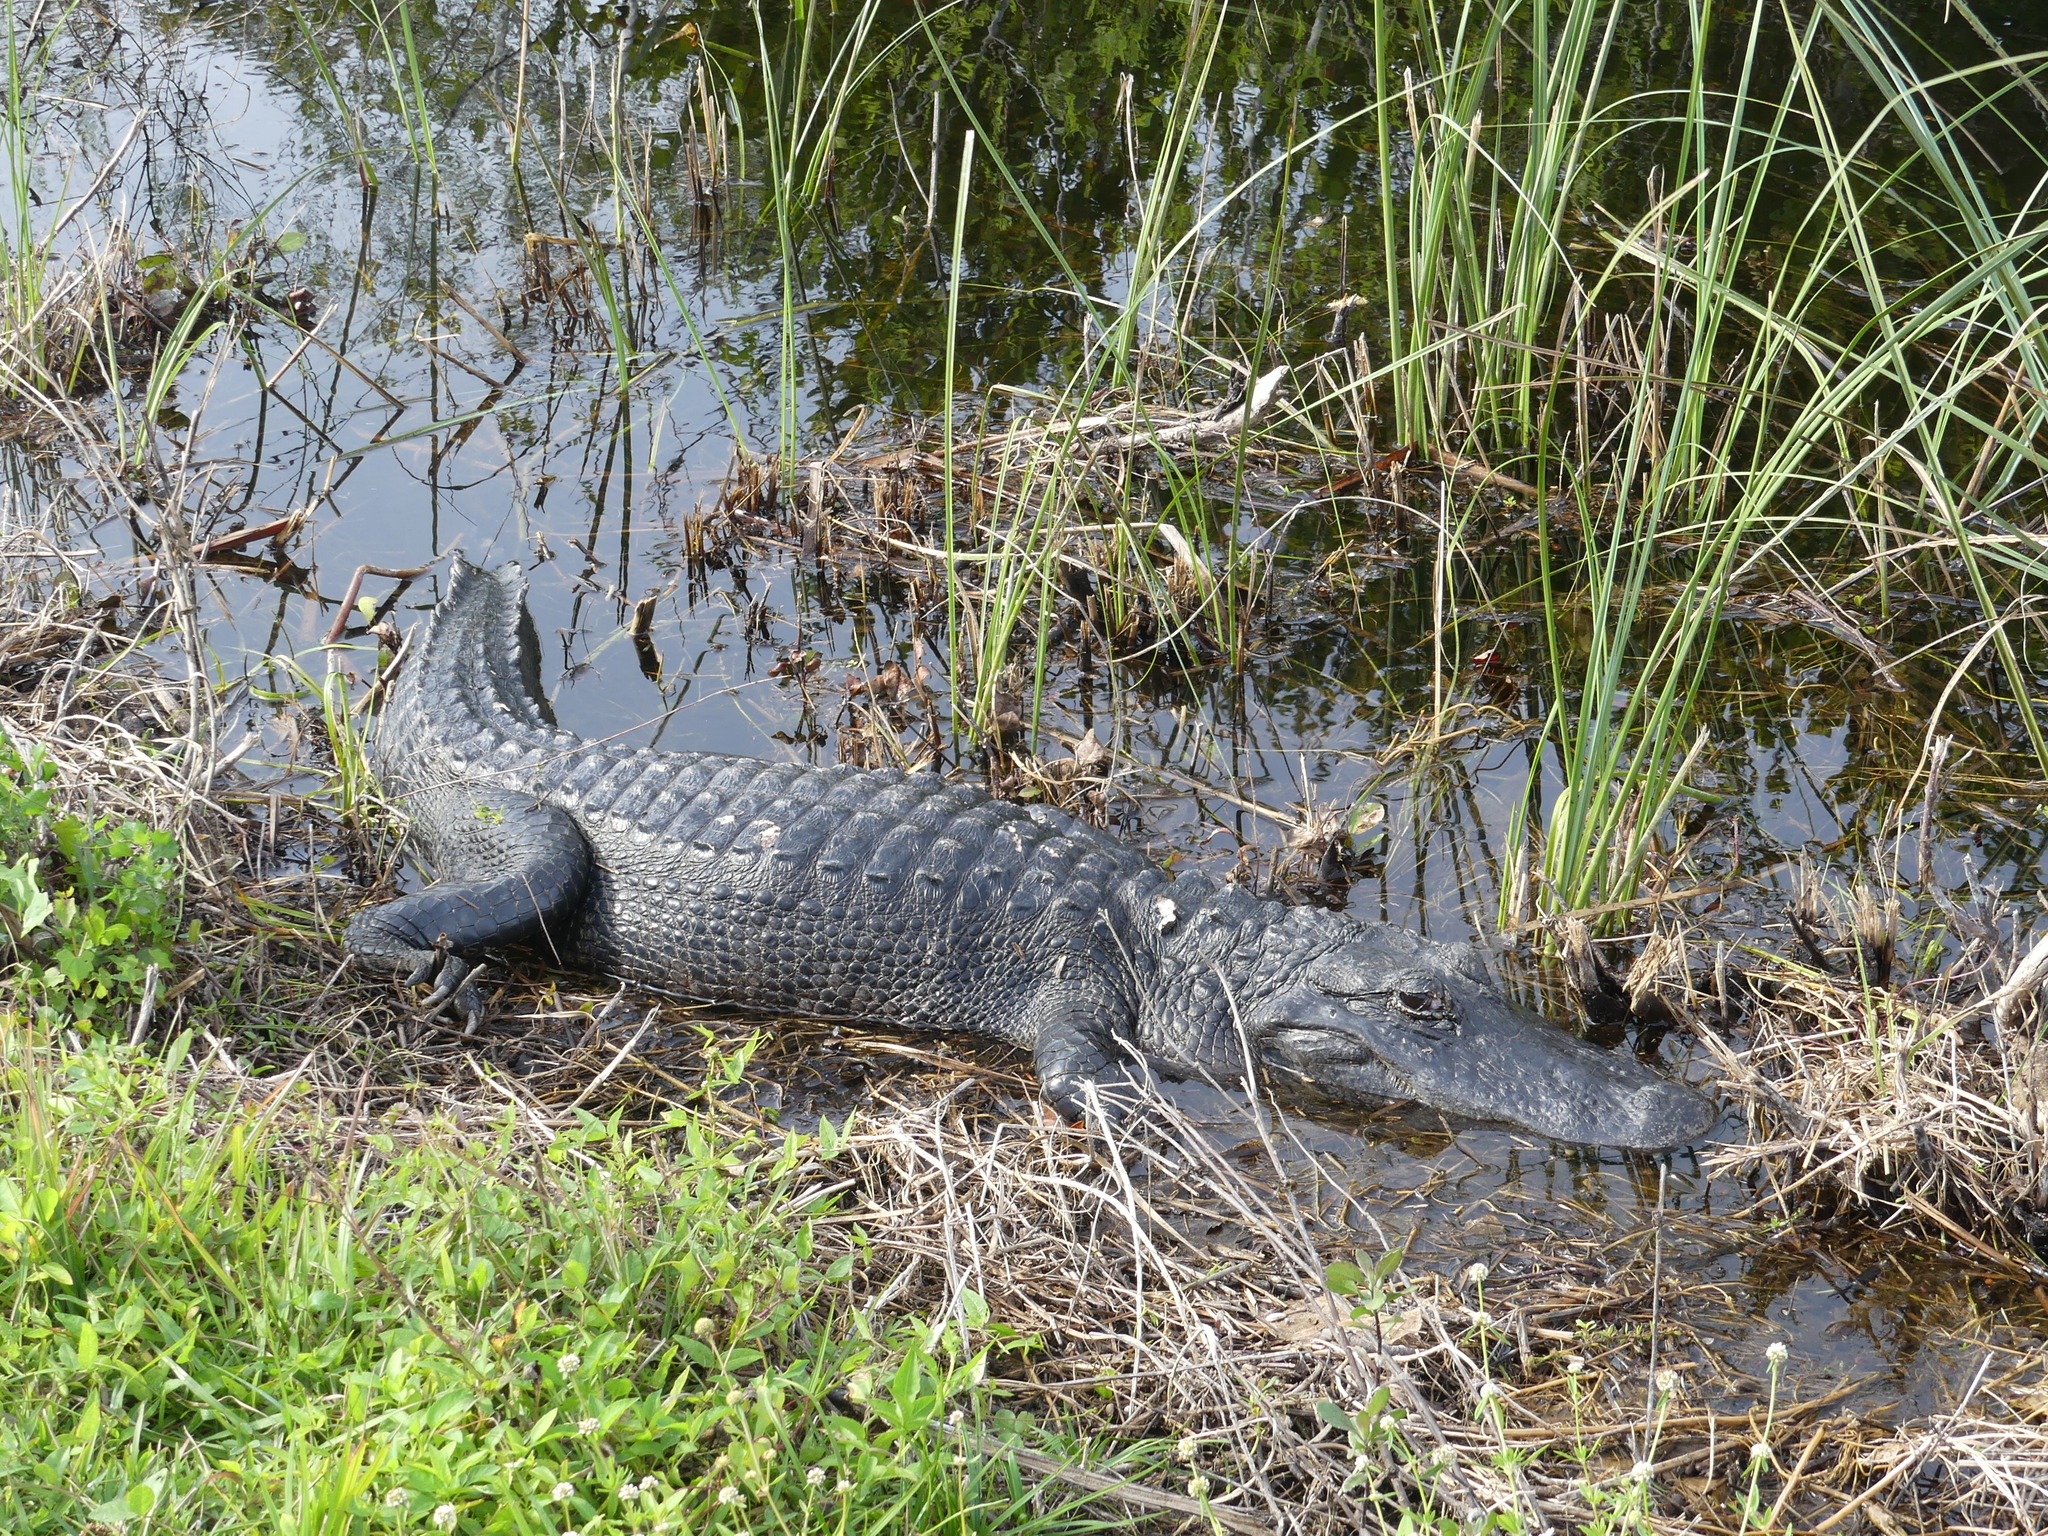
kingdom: Animalia
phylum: Chordata
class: Crocodylia
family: Alligatoridae
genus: Alligator
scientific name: Alligator mississippiensis
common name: American alligator
